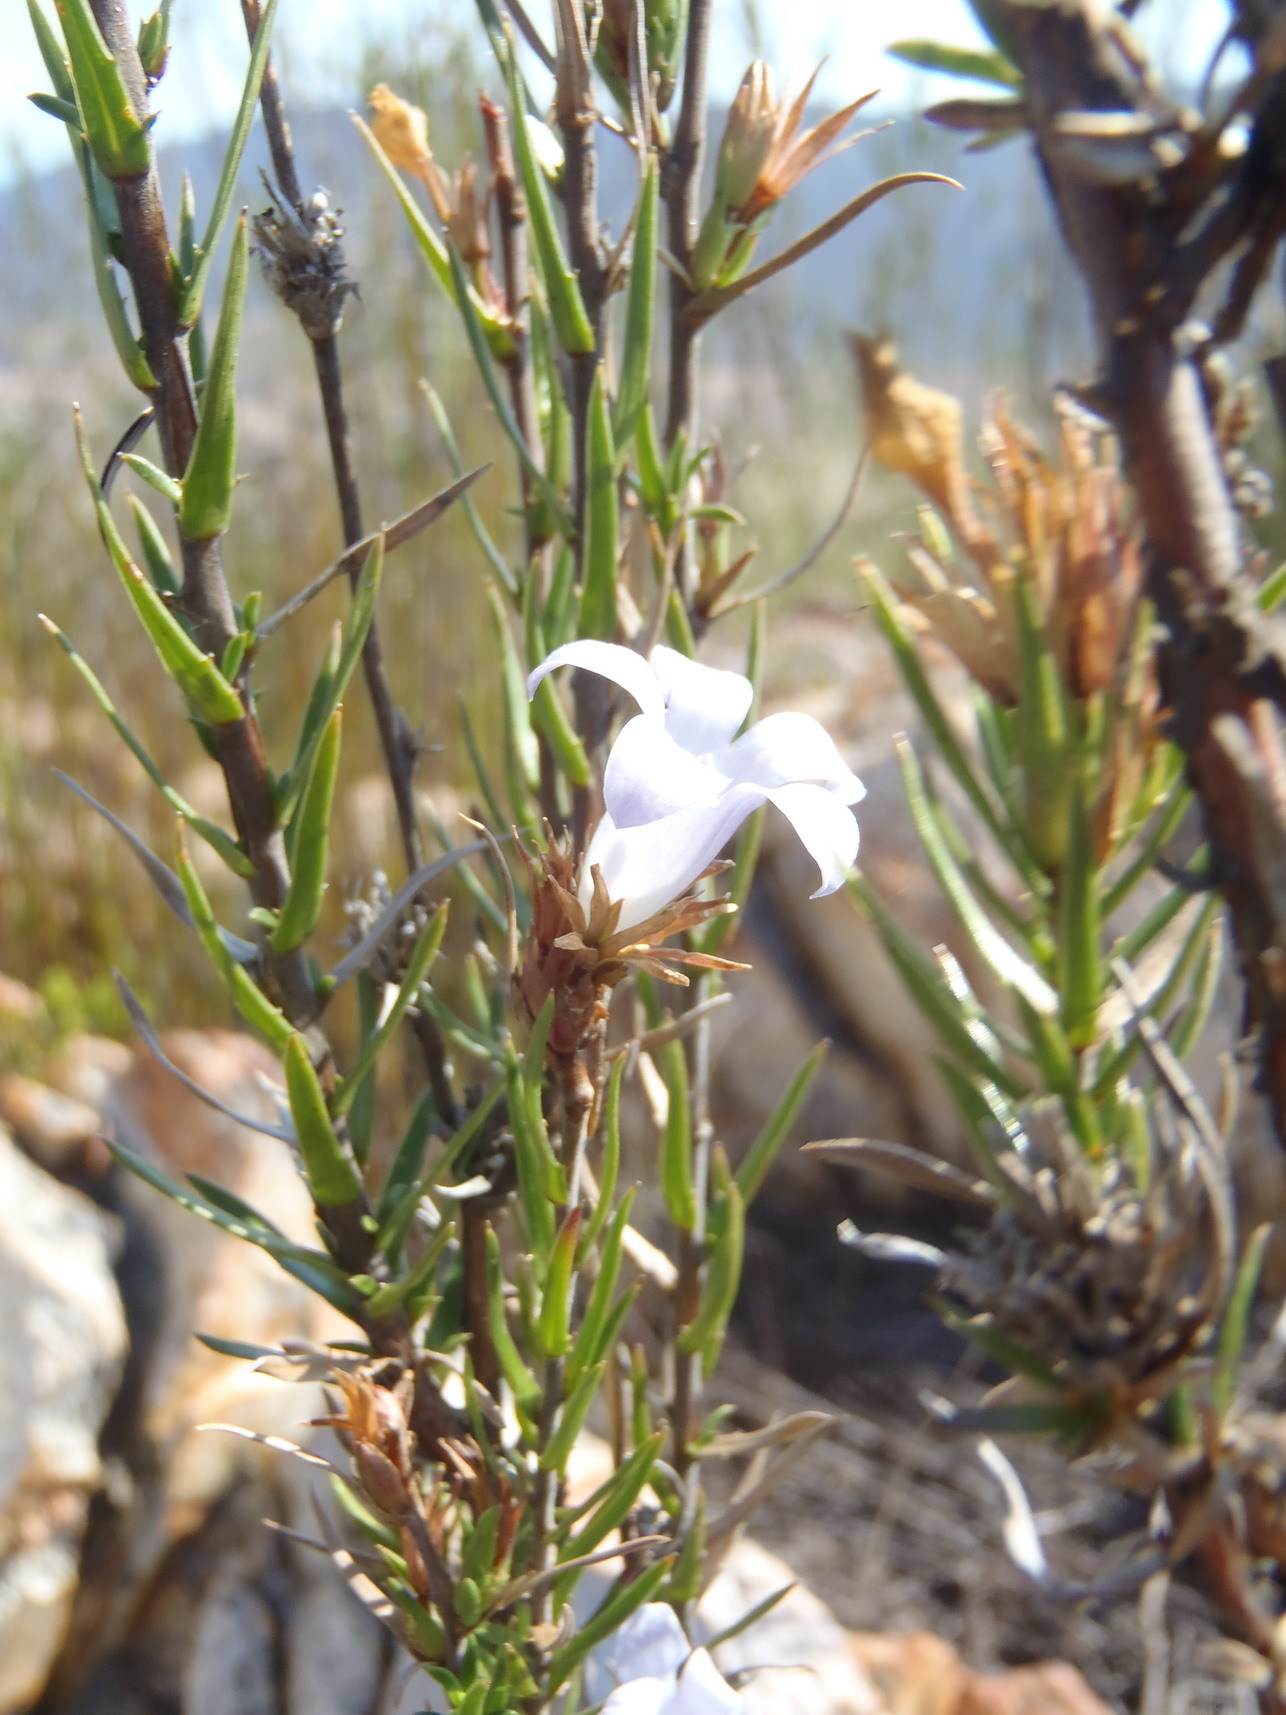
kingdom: Plantae
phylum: Tracheophyta
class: Magnoliopsida
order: Asterales
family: Campanulaceae
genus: Prismatocarpus
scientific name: Prismatocarpus candolleanus
